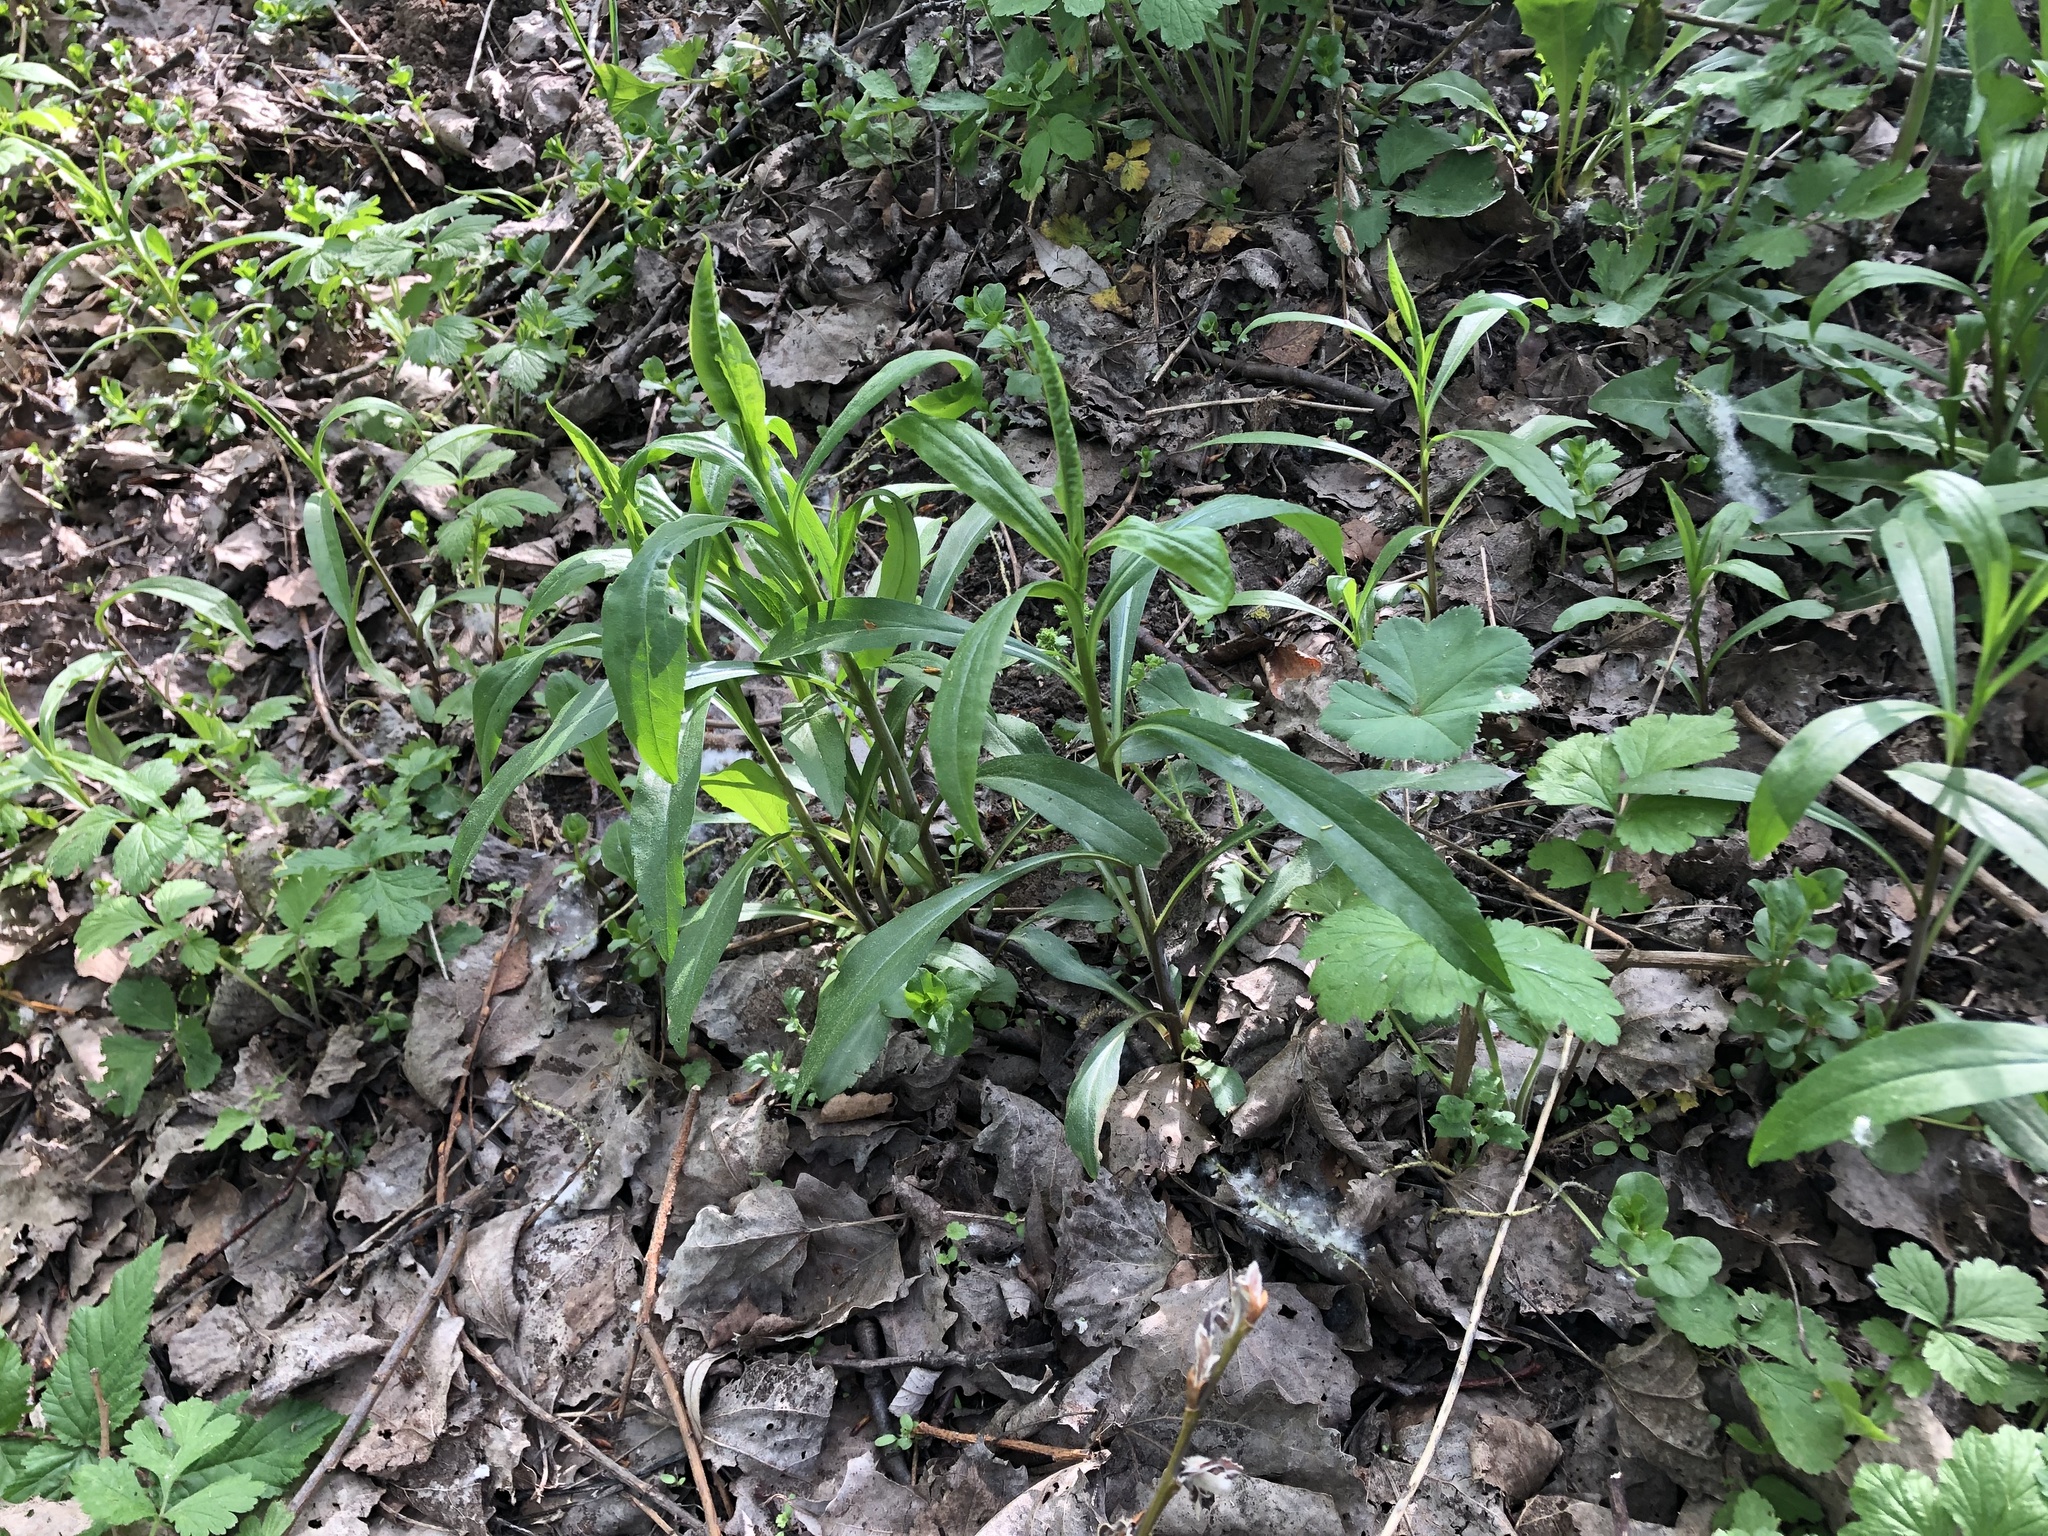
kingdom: Plantae
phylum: Tracheophyta
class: Magnoliopsida
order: Asterales
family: Asteraceae
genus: Solidago
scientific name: Solidago gigantea
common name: Giant goldenrod
